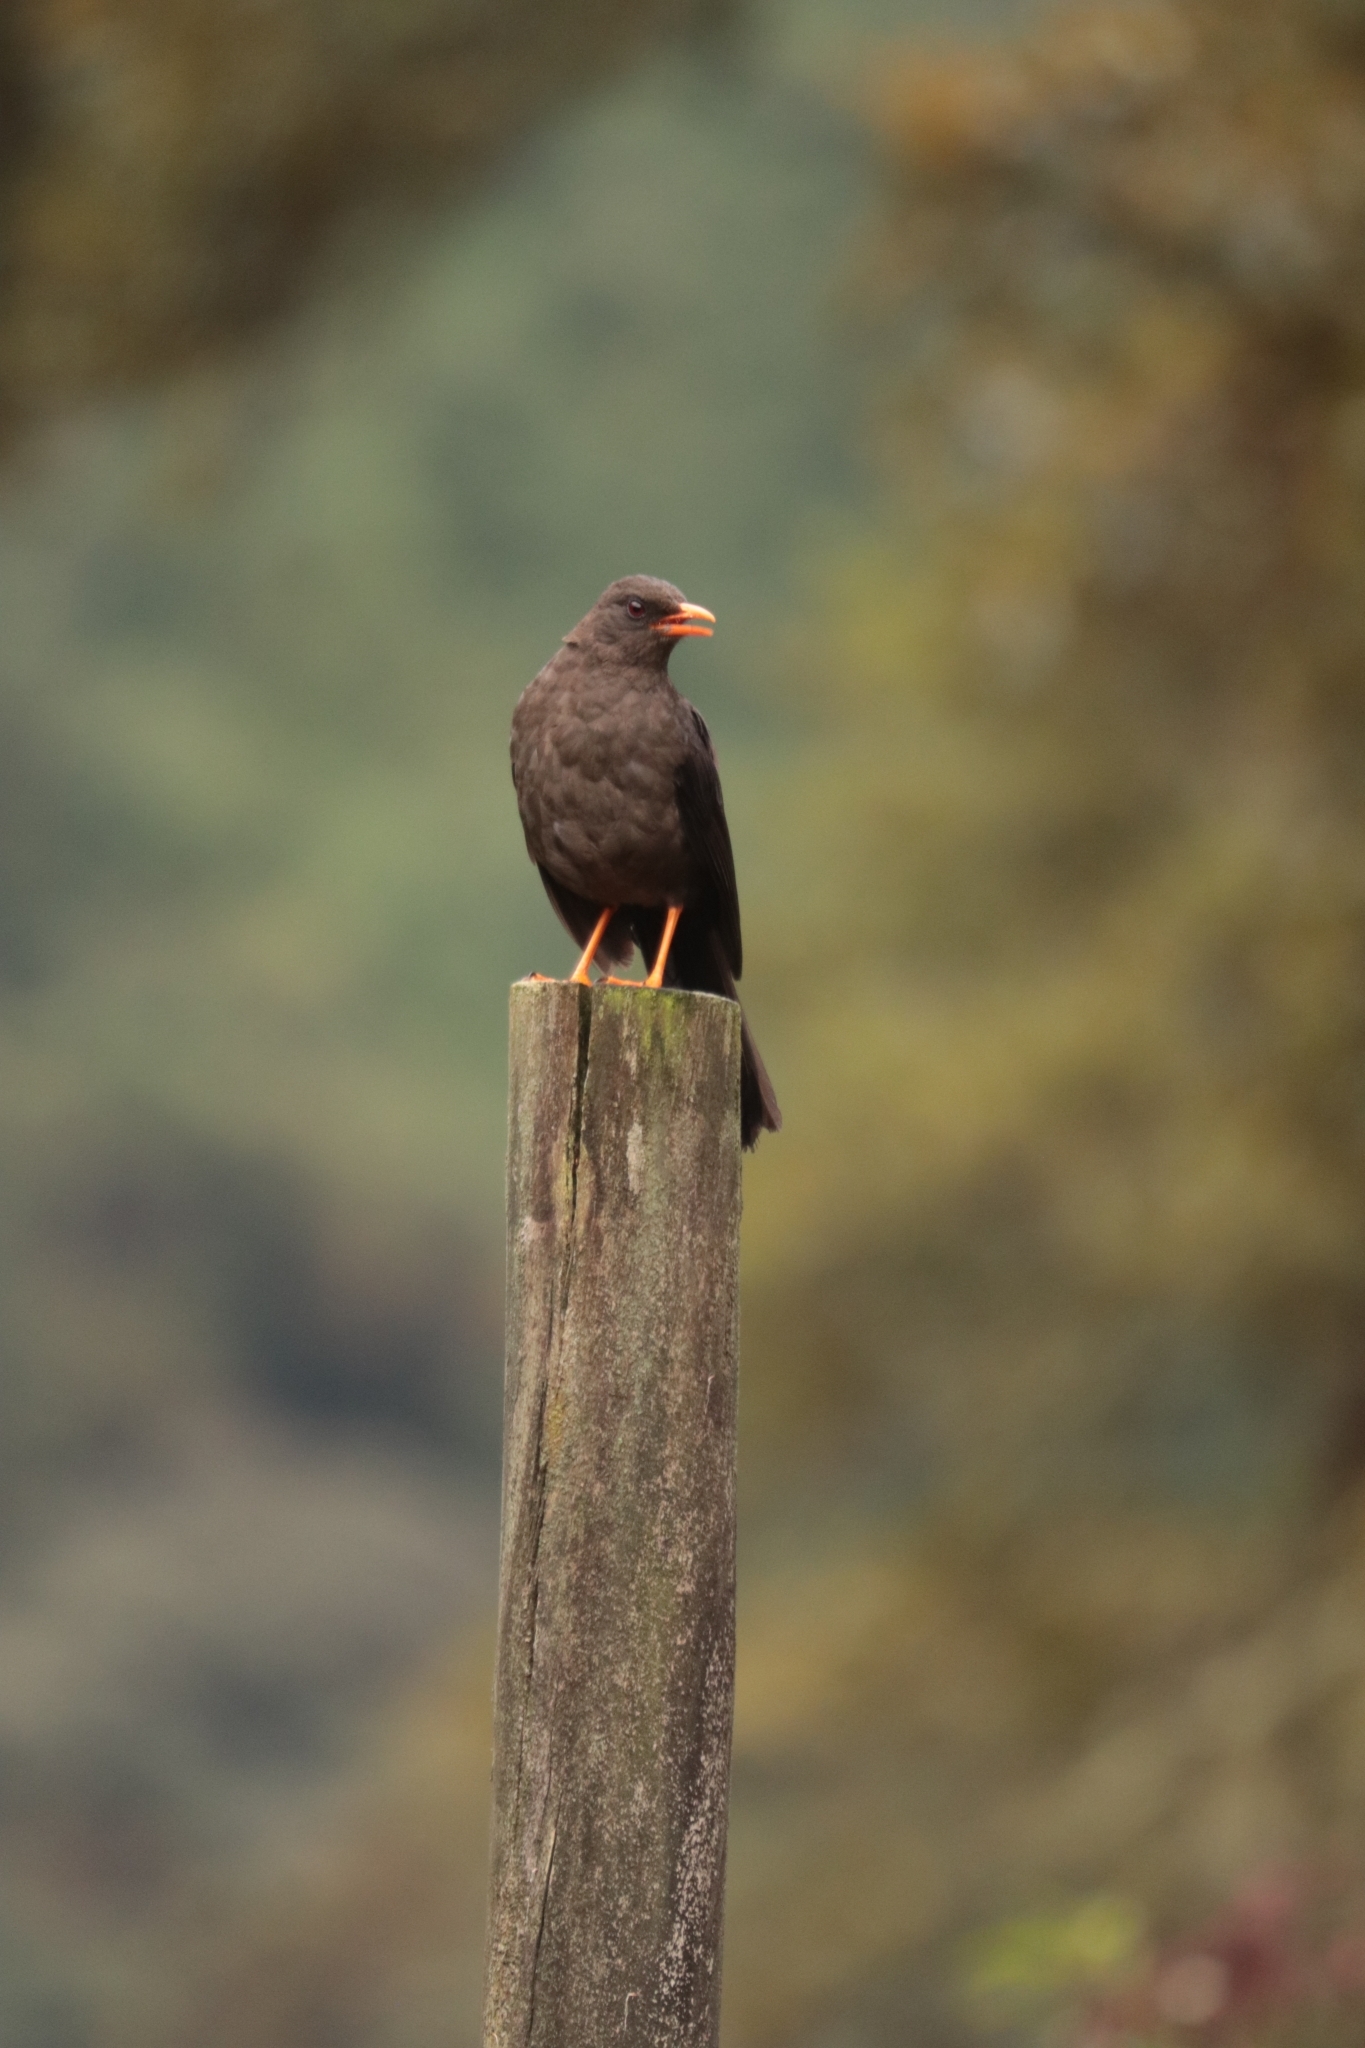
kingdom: Animalia
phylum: Chordata
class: Aves
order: Passeriformes
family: Turdidae
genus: Turdus
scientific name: Turdus fuscater
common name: Great thrush
